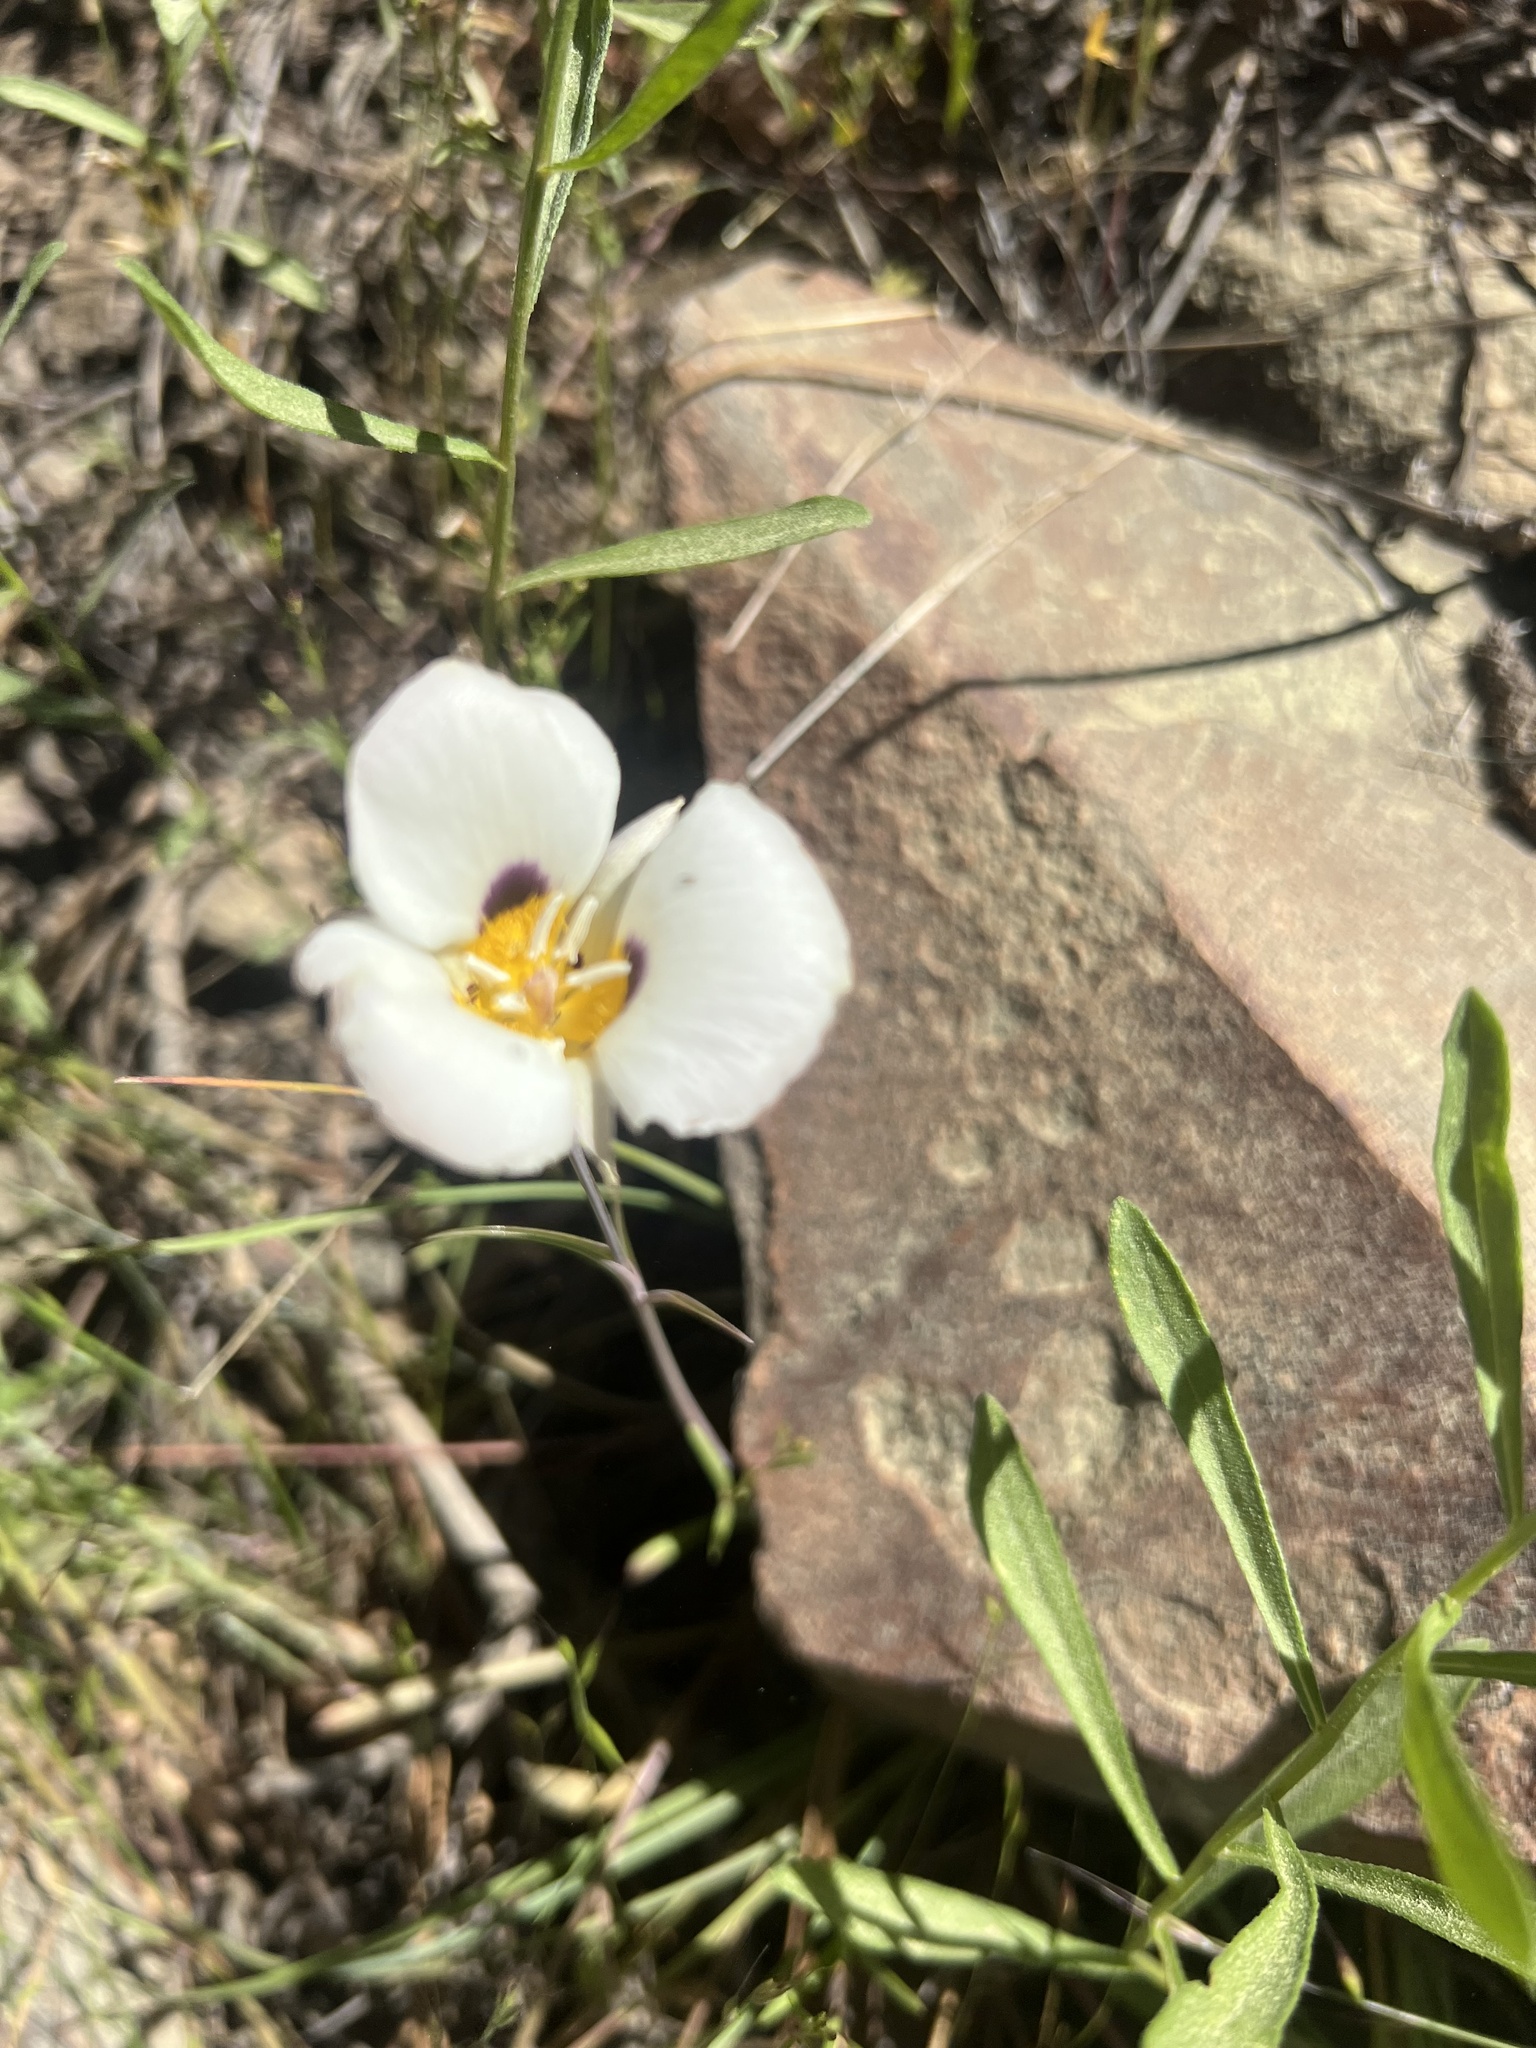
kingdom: Plantae
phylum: Tracheophyta
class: Liliopsida
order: Liliales
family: Liliaceae
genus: Calochortus
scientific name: Calochortus leichtlinii
